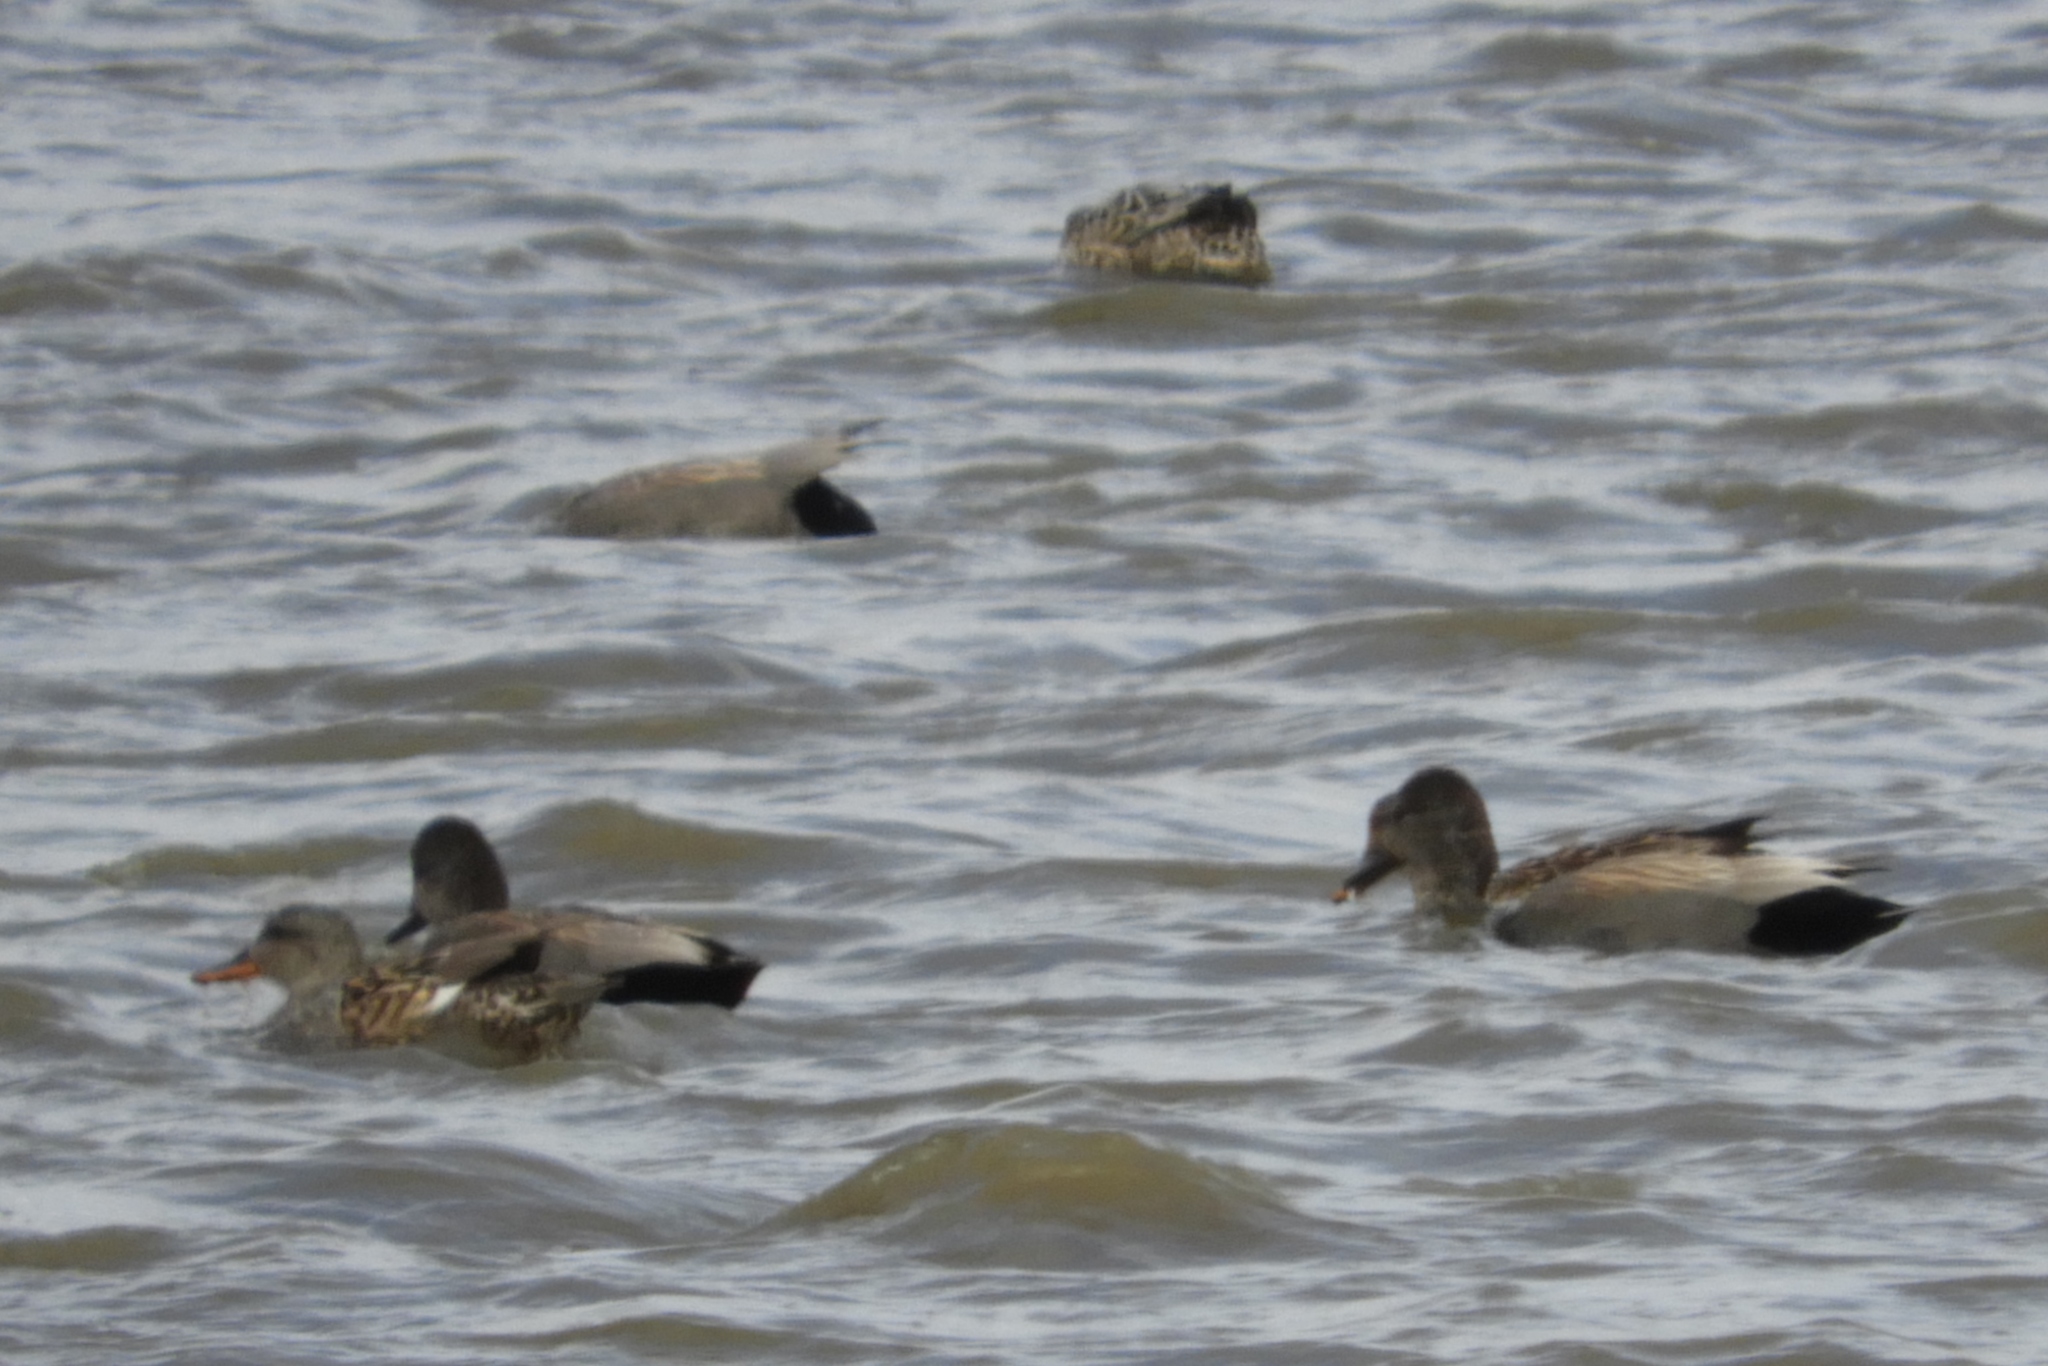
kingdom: Animalia
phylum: Chordata
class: Aves
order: Anseriformes
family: Anatidae
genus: Mareca
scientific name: Mareca strepera
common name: Gadwall
